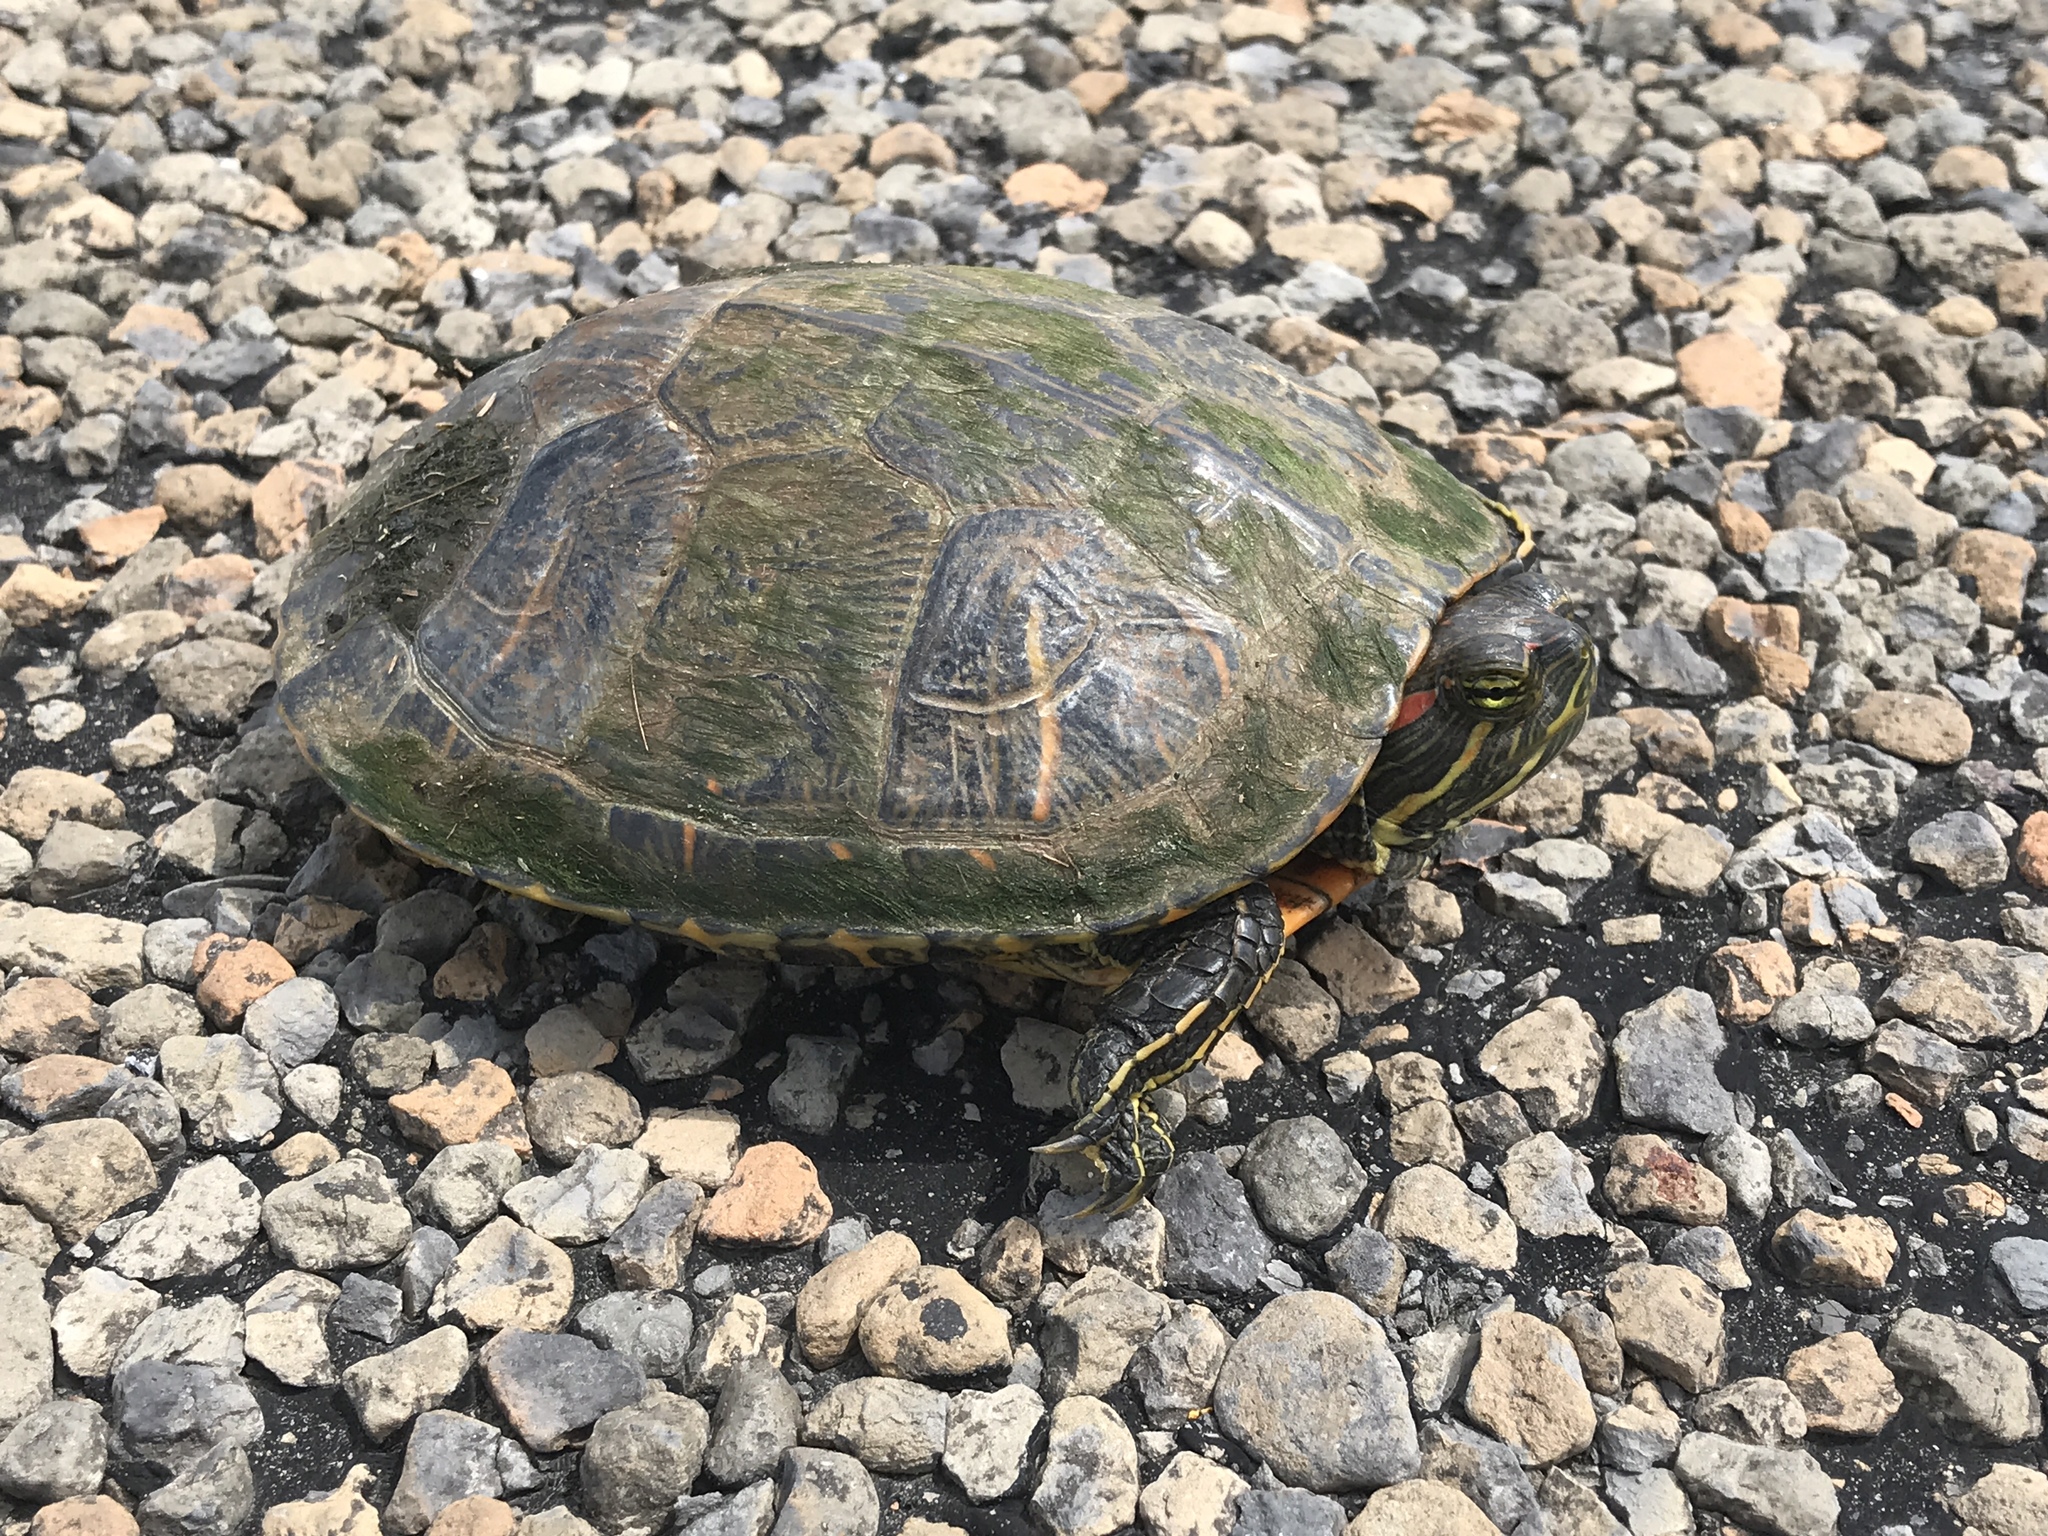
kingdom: Animalia
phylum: Chordata
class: Testudines
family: Emydidae
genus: Trachemys
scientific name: Trachemys scripta
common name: Slider
